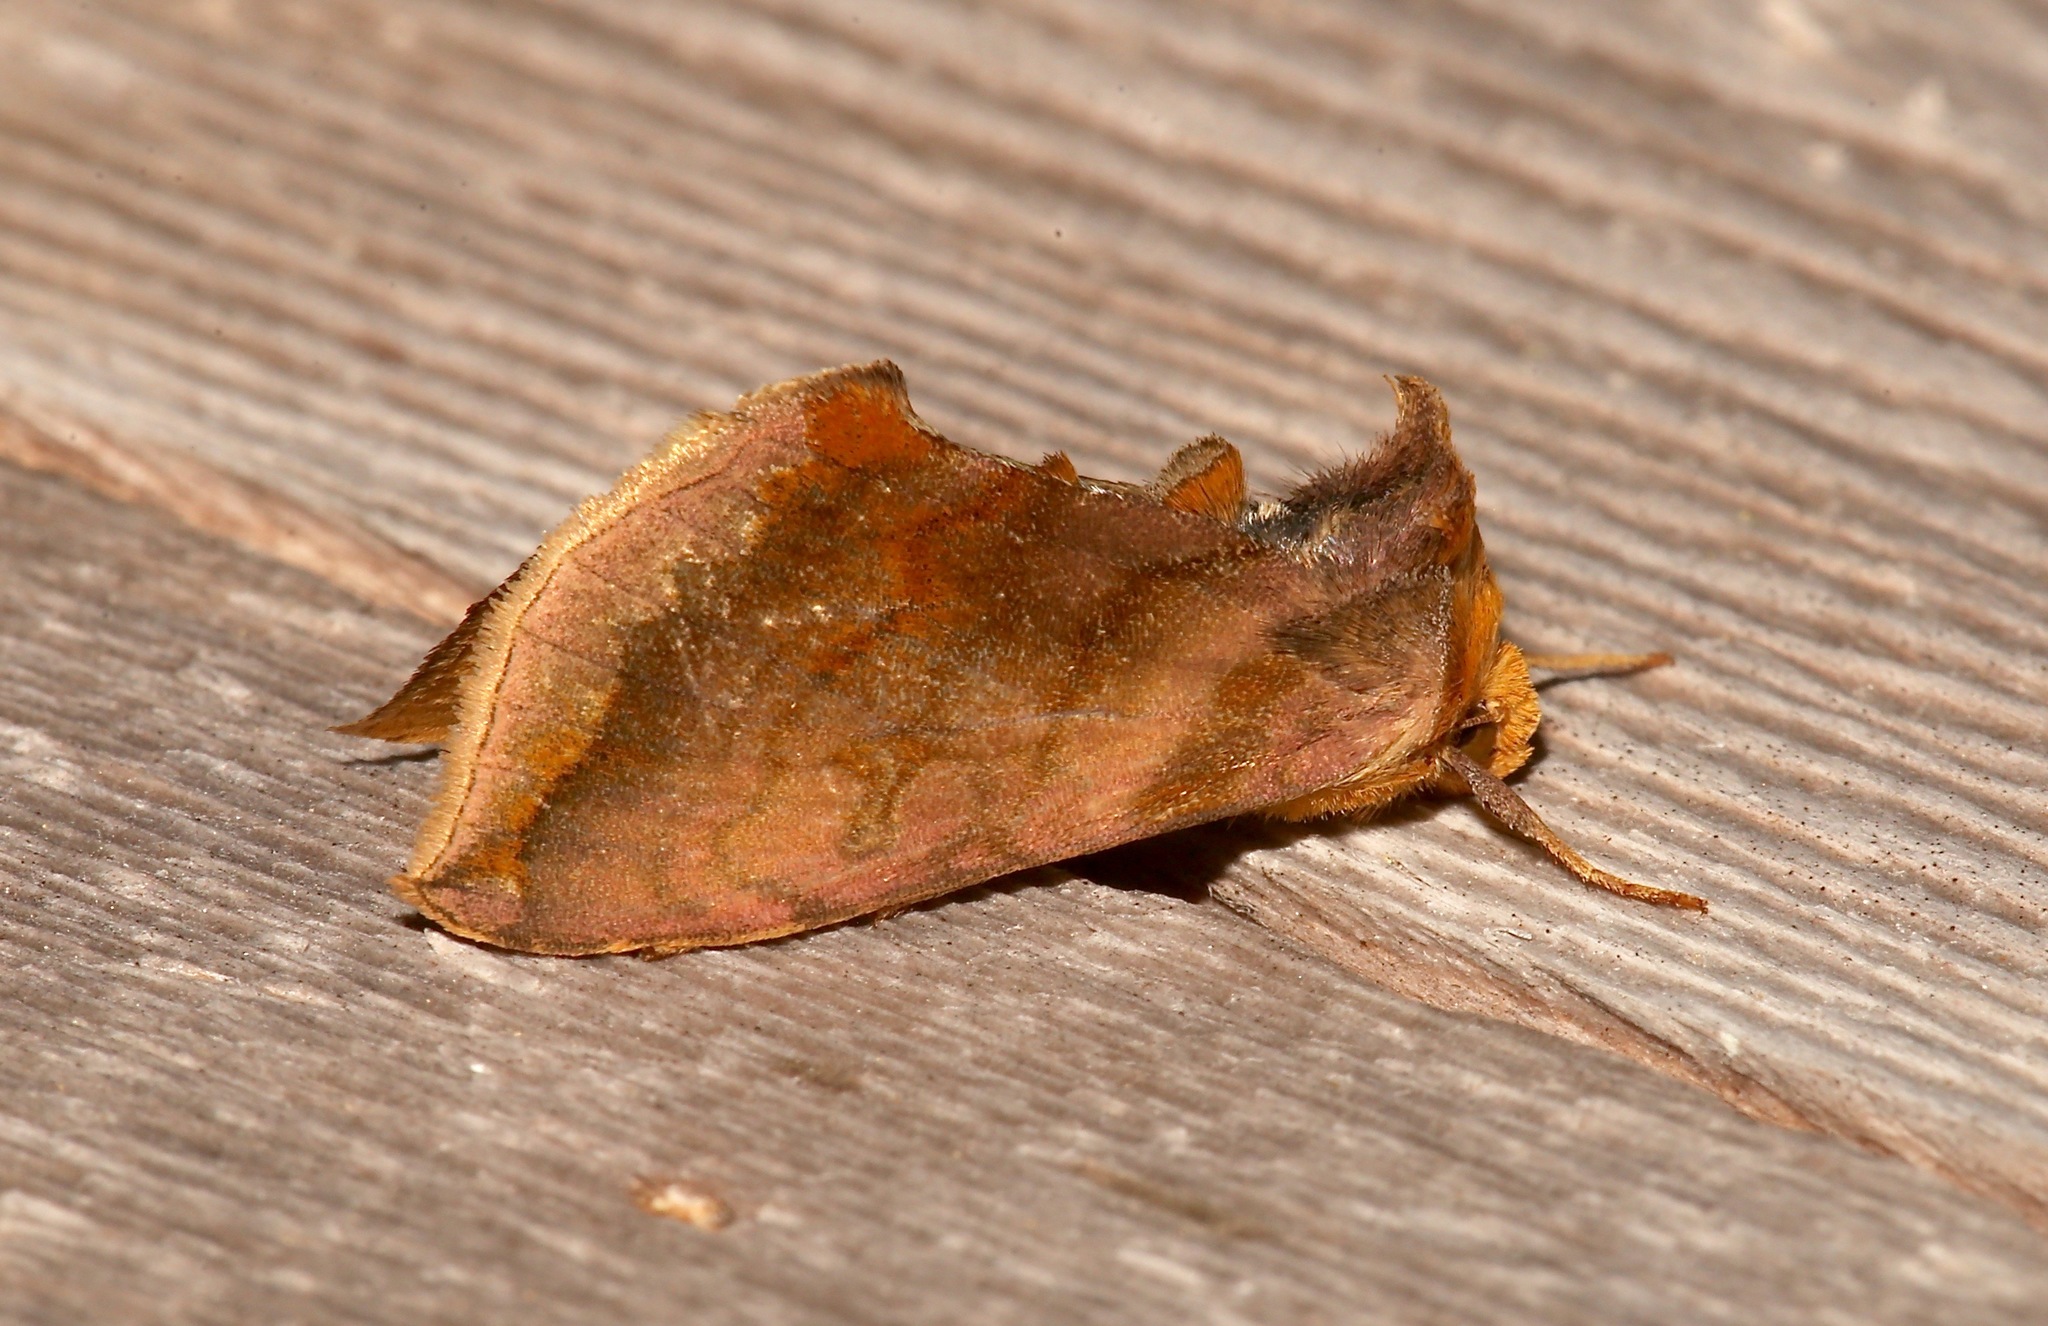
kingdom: Animalia
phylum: Arthropoda
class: Insecta
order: Lepidoptera
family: Noctuidae
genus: Allagrapha
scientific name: Allagrapha aerea
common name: Unspotted looper moth
